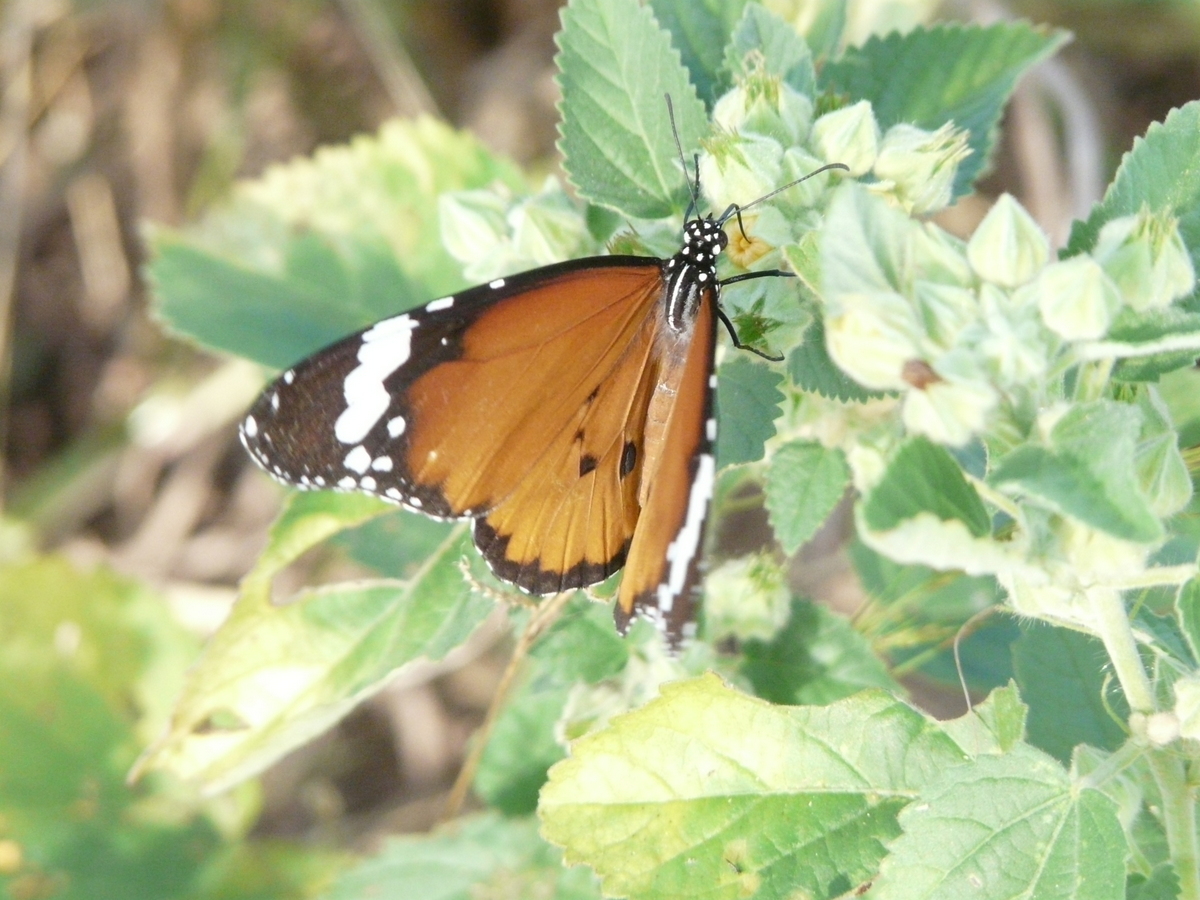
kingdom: Animalia
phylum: Arthropoda
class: Insecta
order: Lepidoptera
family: Nymphalidae
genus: Danaus
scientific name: Danaus chrysippus
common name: Plain tiger
